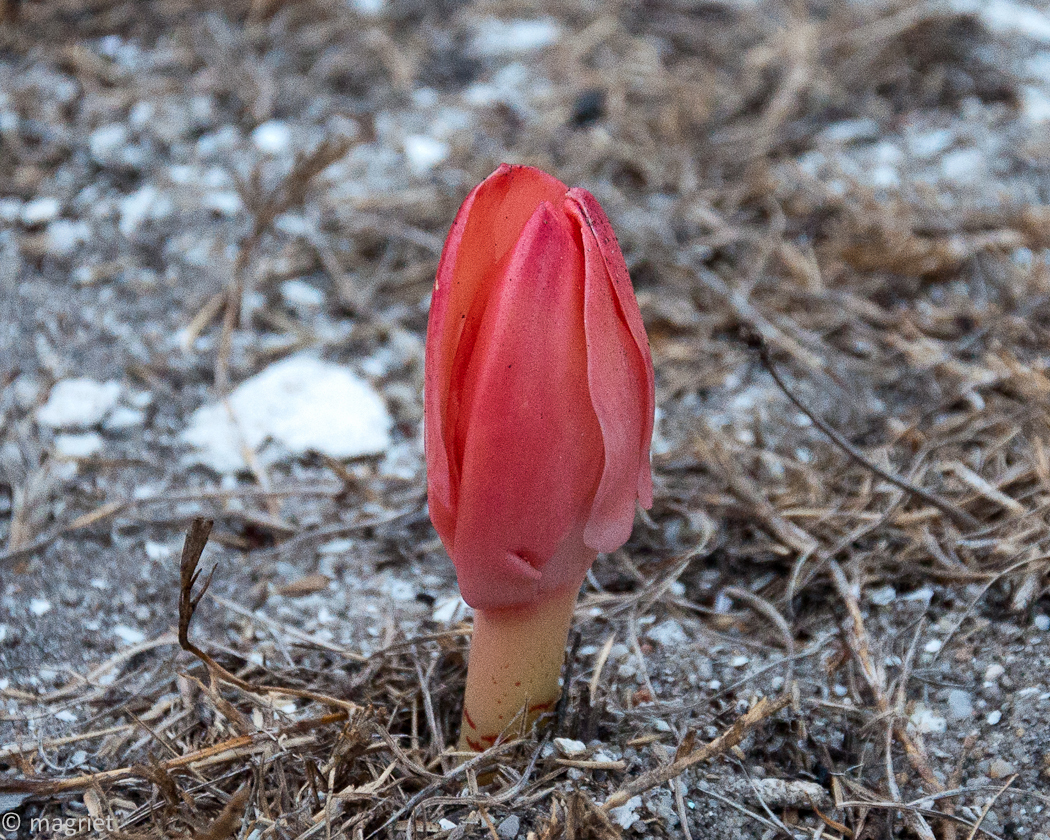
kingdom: Plantae
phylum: Tracheophyta
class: Liliopsida
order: Asparagales
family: Amaryllidaceae
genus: Haemanthus
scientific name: Haemanthus coccineus
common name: Cape-tulip
